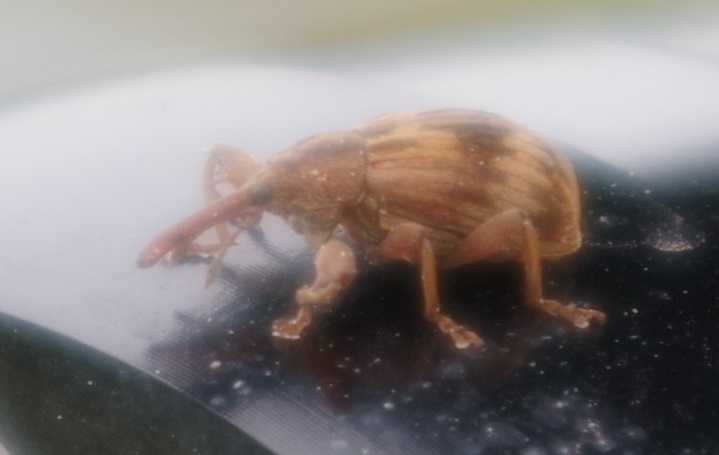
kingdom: Animalia
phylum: Arthropoda
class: Insecta
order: Coleoptera
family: Curculionidae
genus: Anthonomus
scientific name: Anthonomus rectirostris
